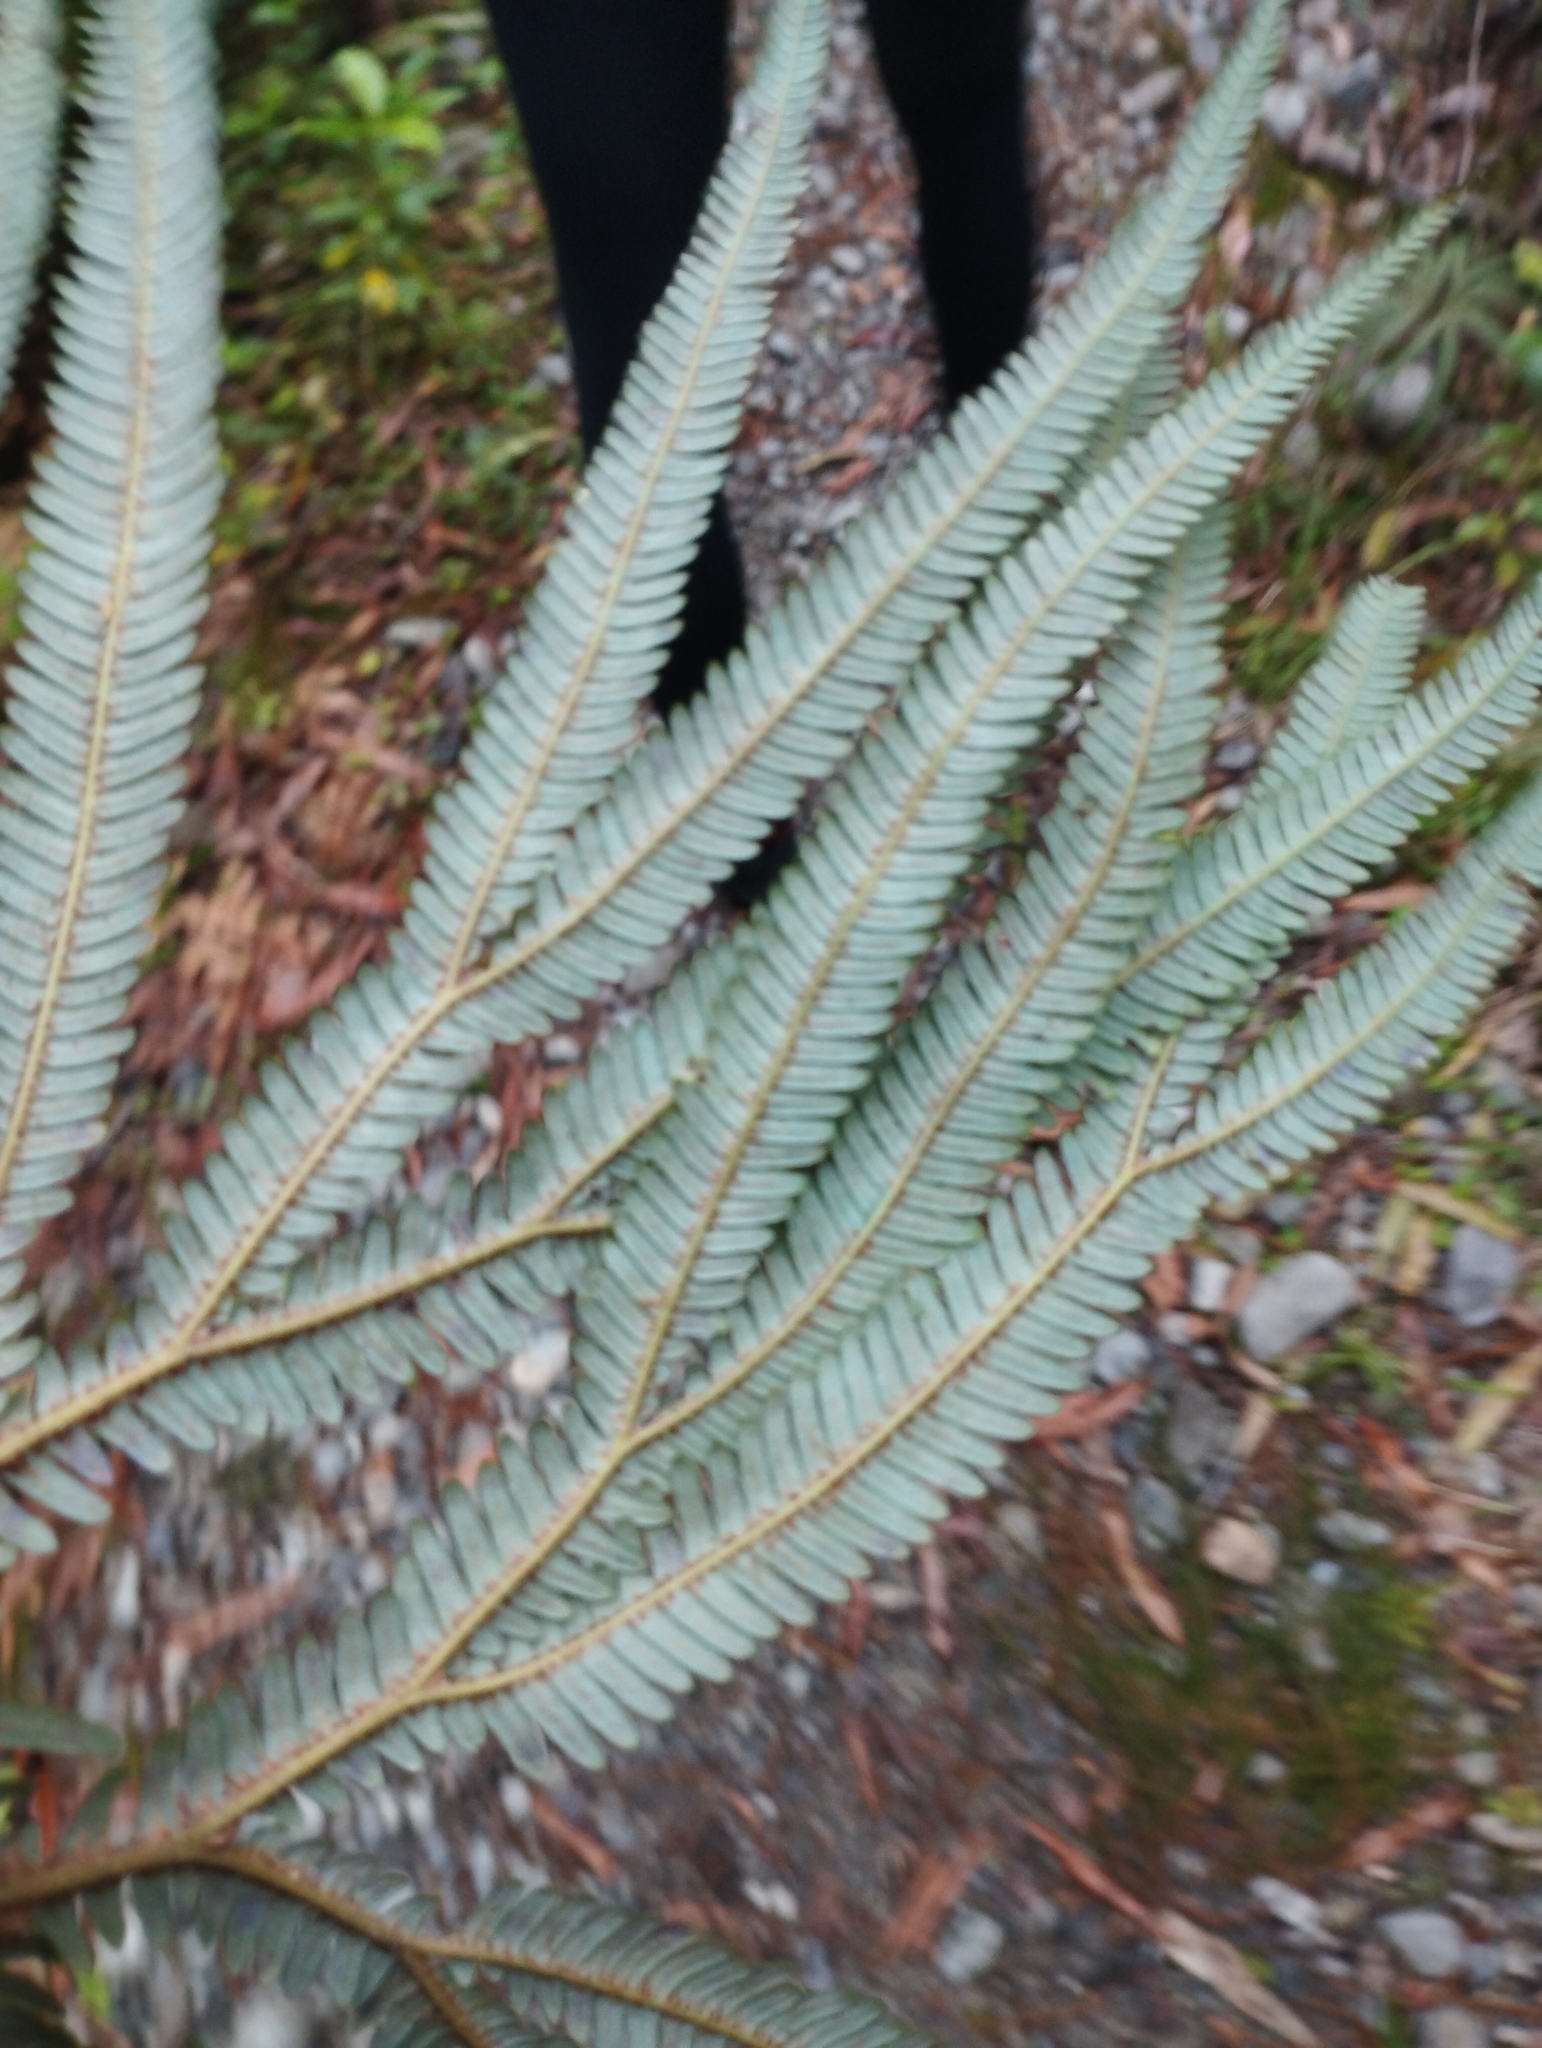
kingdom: Plantae
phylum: Tracheophyta
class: Polypodiopsida
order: Gleicheniales
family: Gleicheniaceae
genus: Sticherus
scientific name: Sticherus cunninghamii
